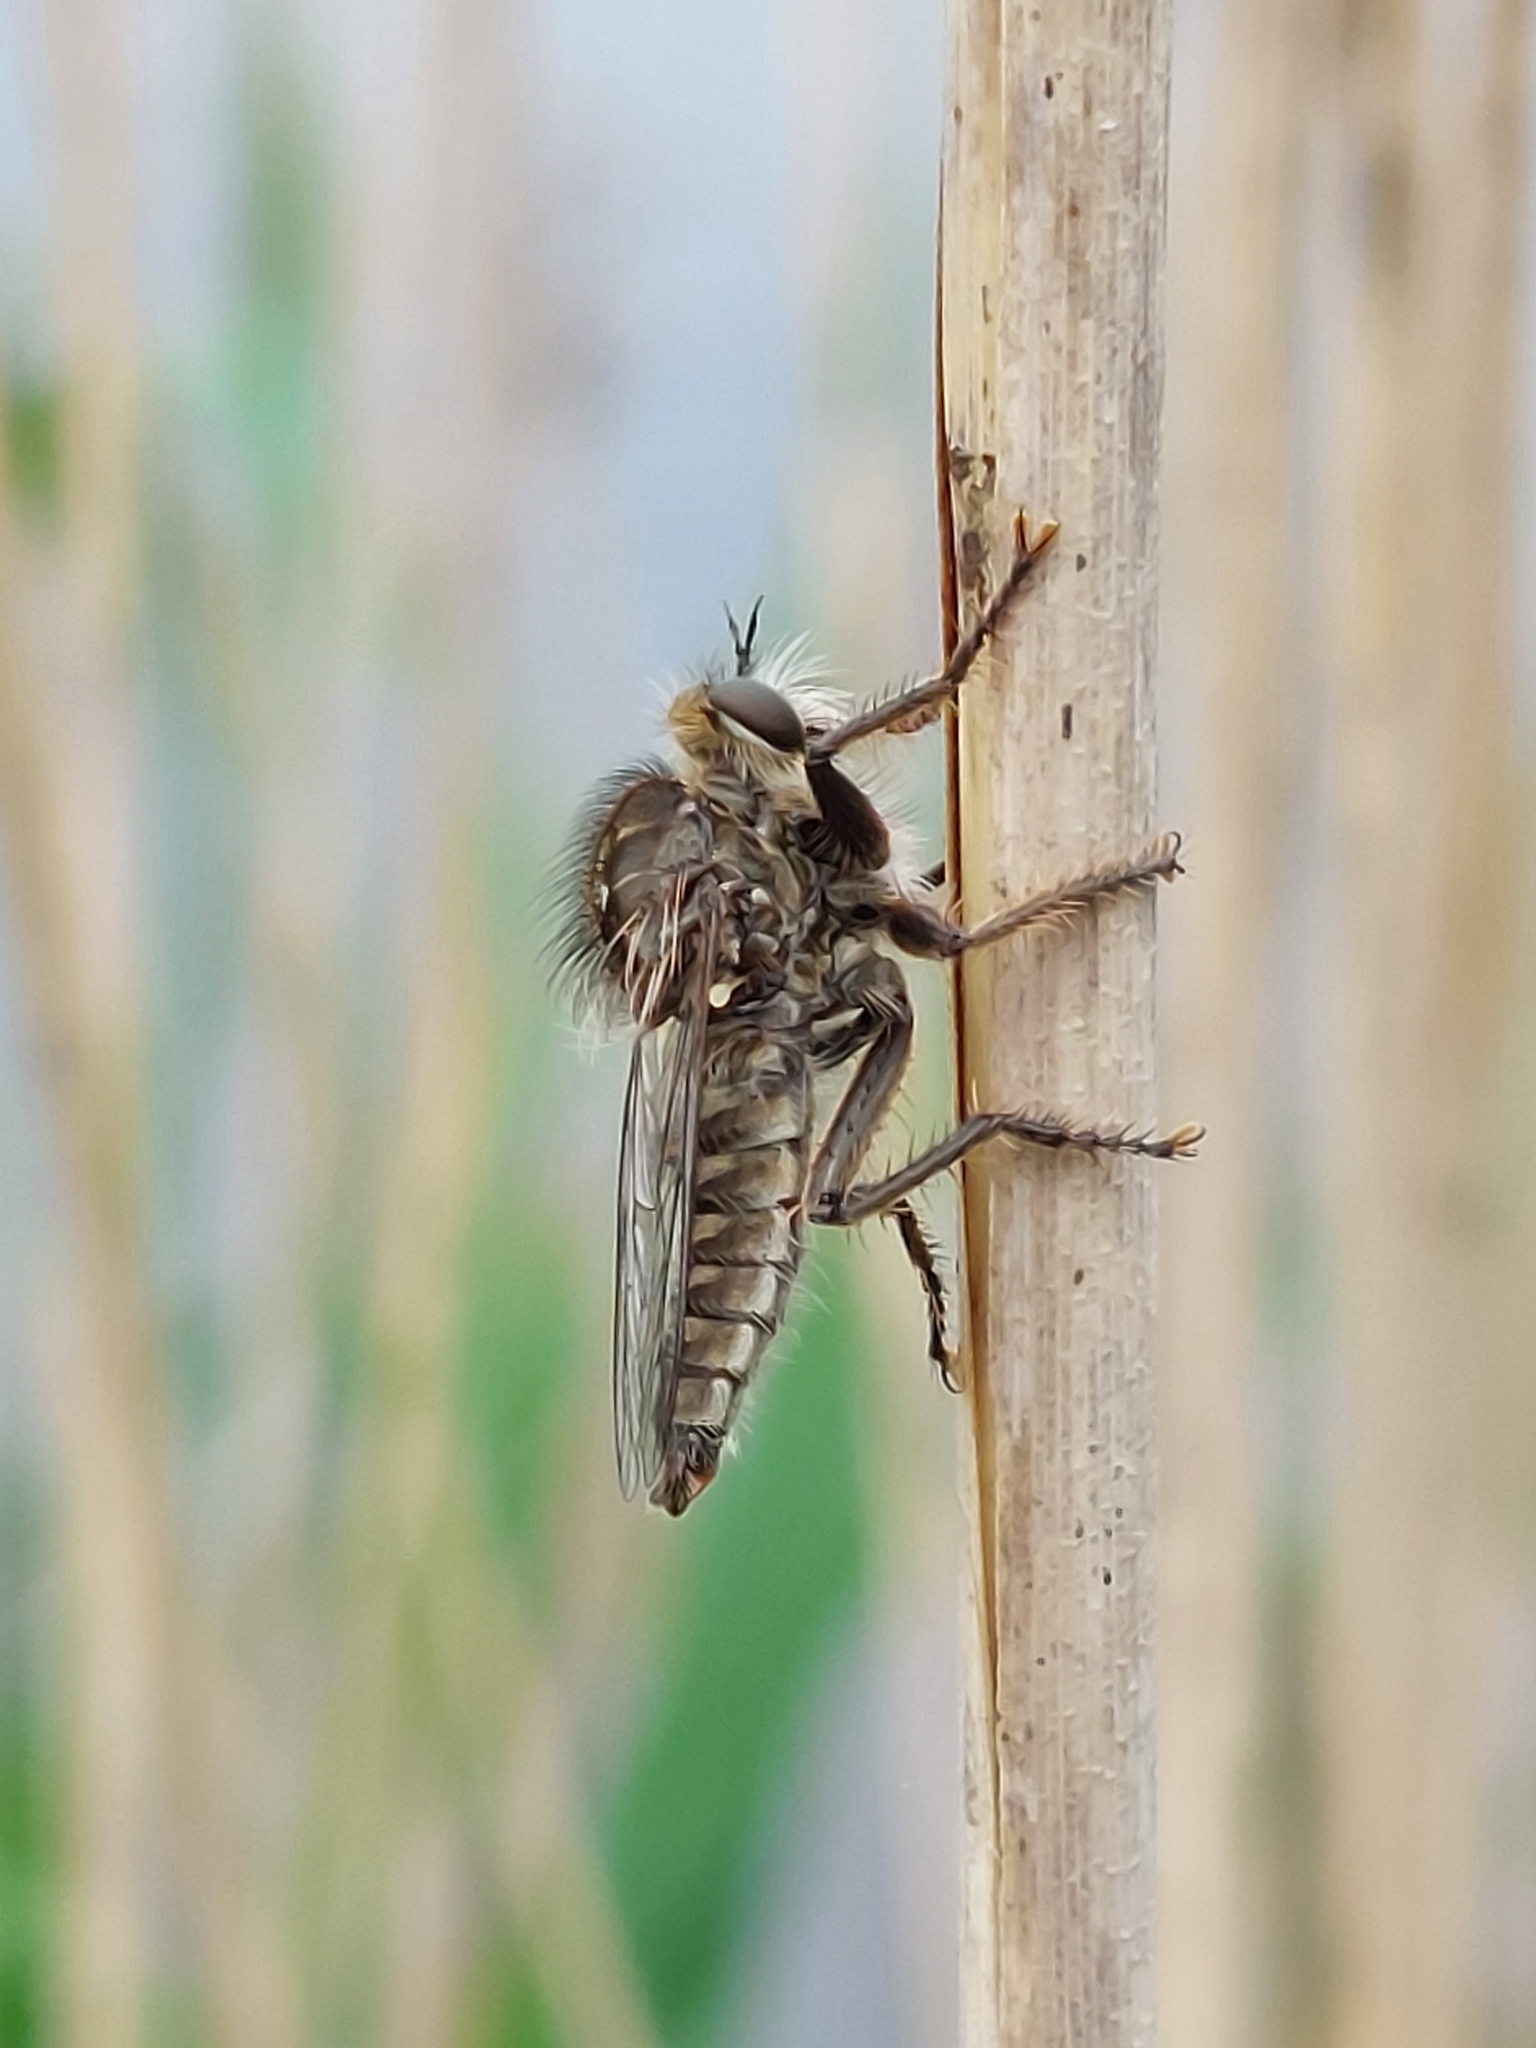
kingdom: Animalia
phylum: Arthropoda
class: Insecta
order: Diptera
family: Asilidae
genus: Dysmachus
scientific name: Dysmachus trigonus
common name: Fan-bristled robberfly
